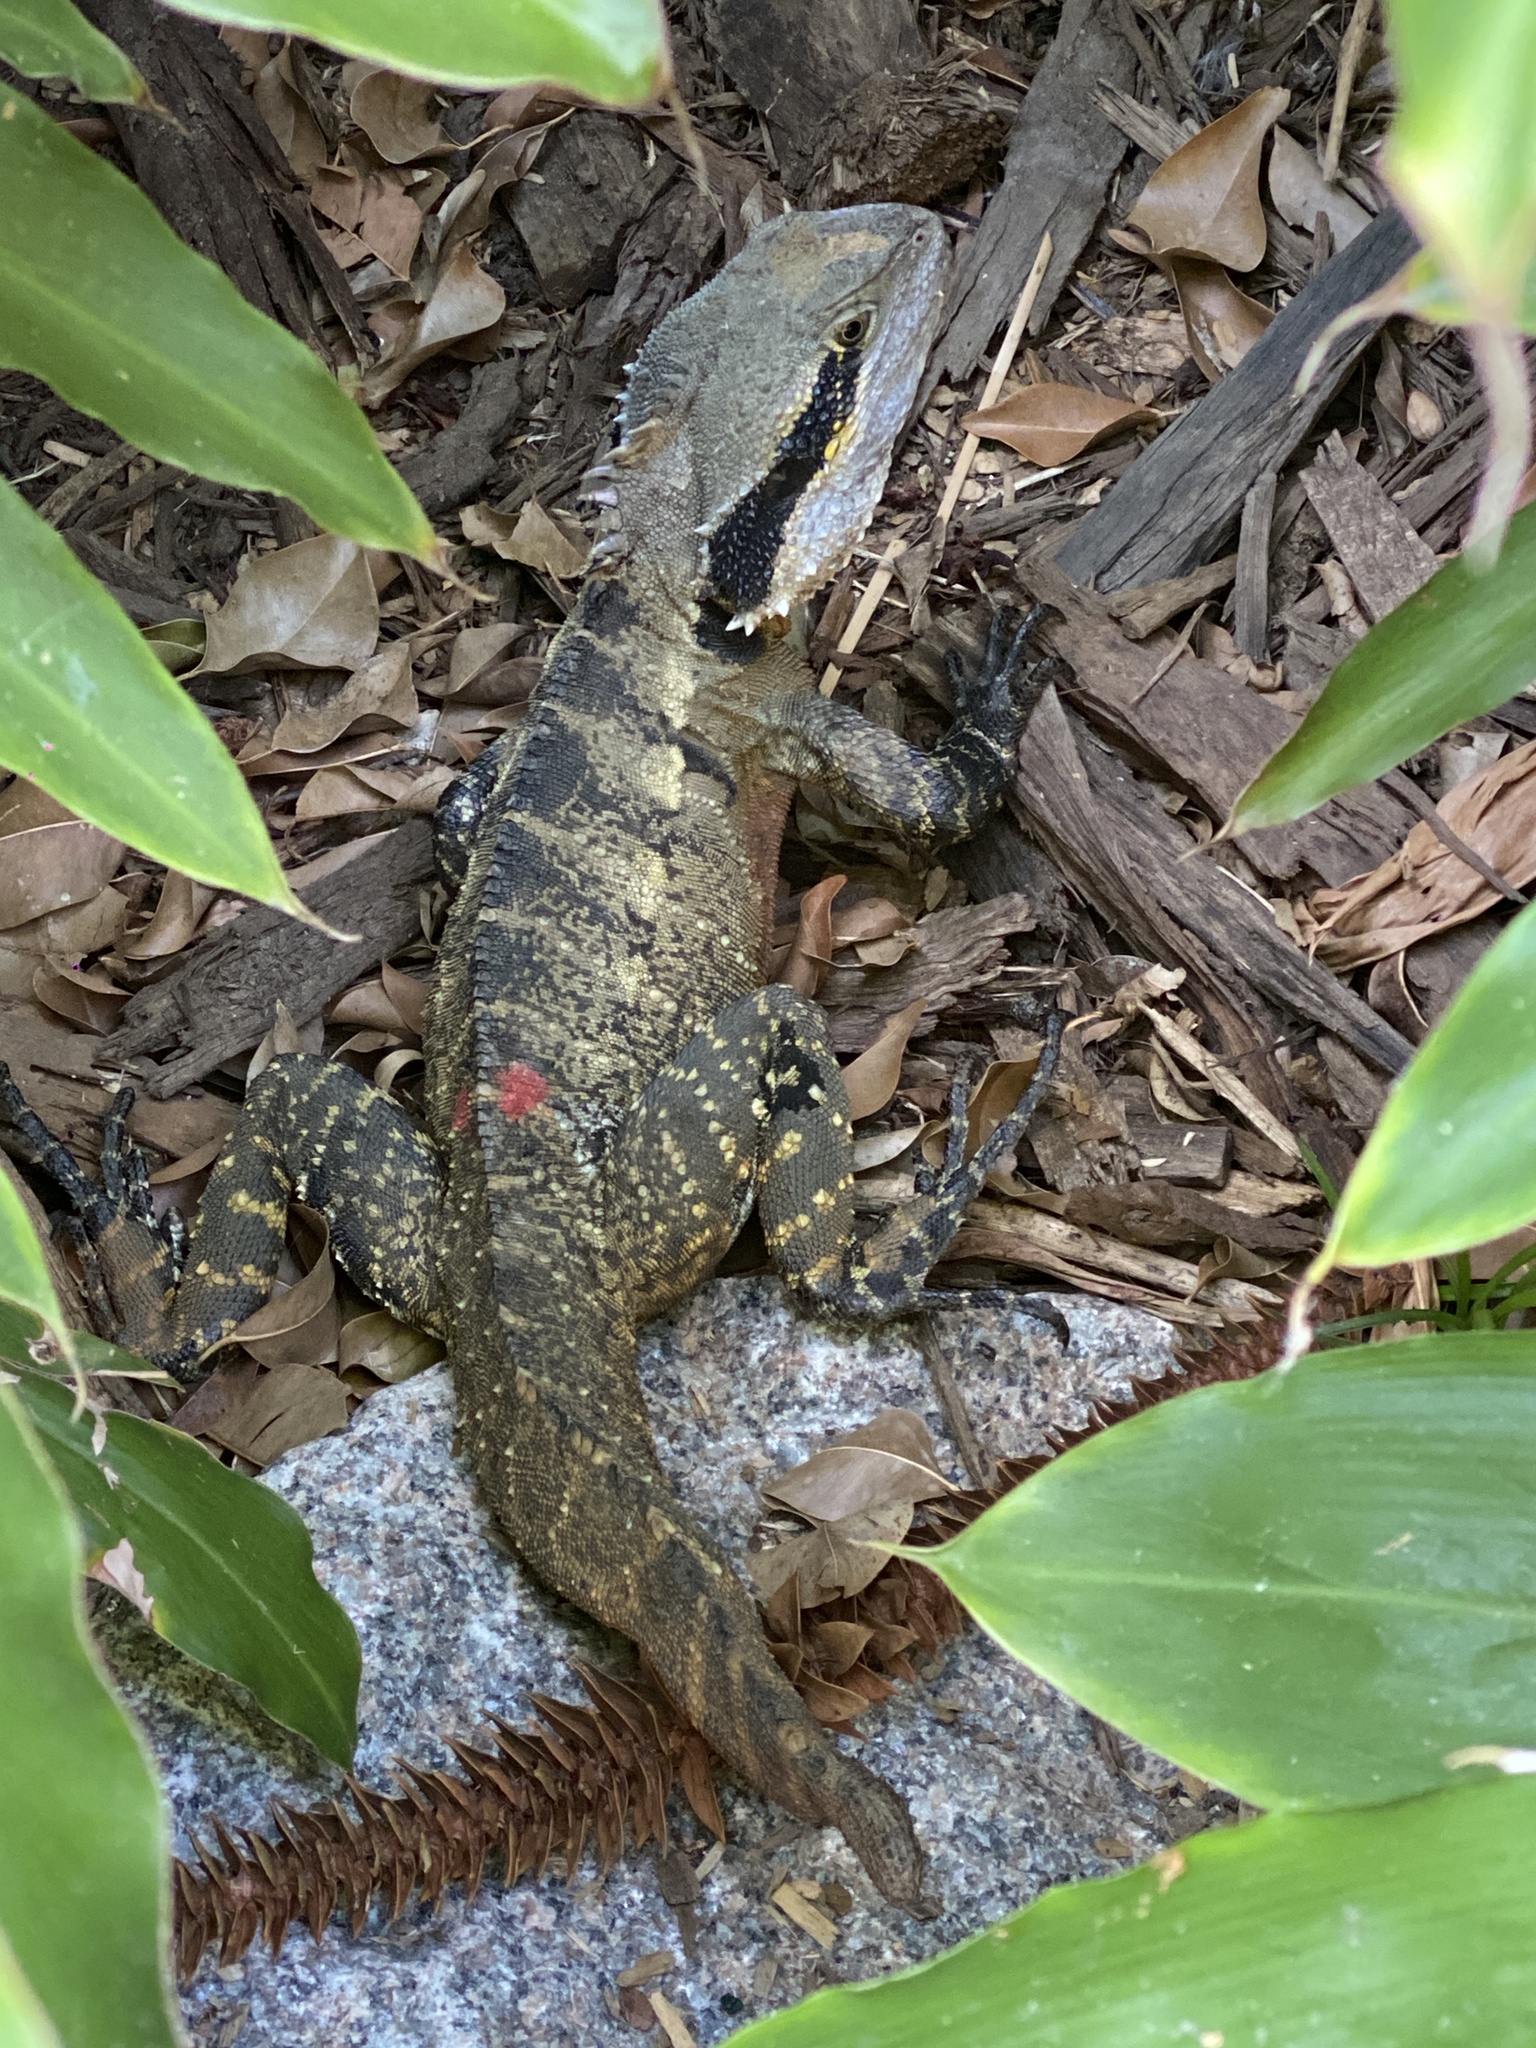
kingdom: Animalia
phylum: Chordata
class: Squamata
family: Agamidae
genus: Intellagama
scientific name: Intellagama lesueurii
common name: Eastern water dragon
